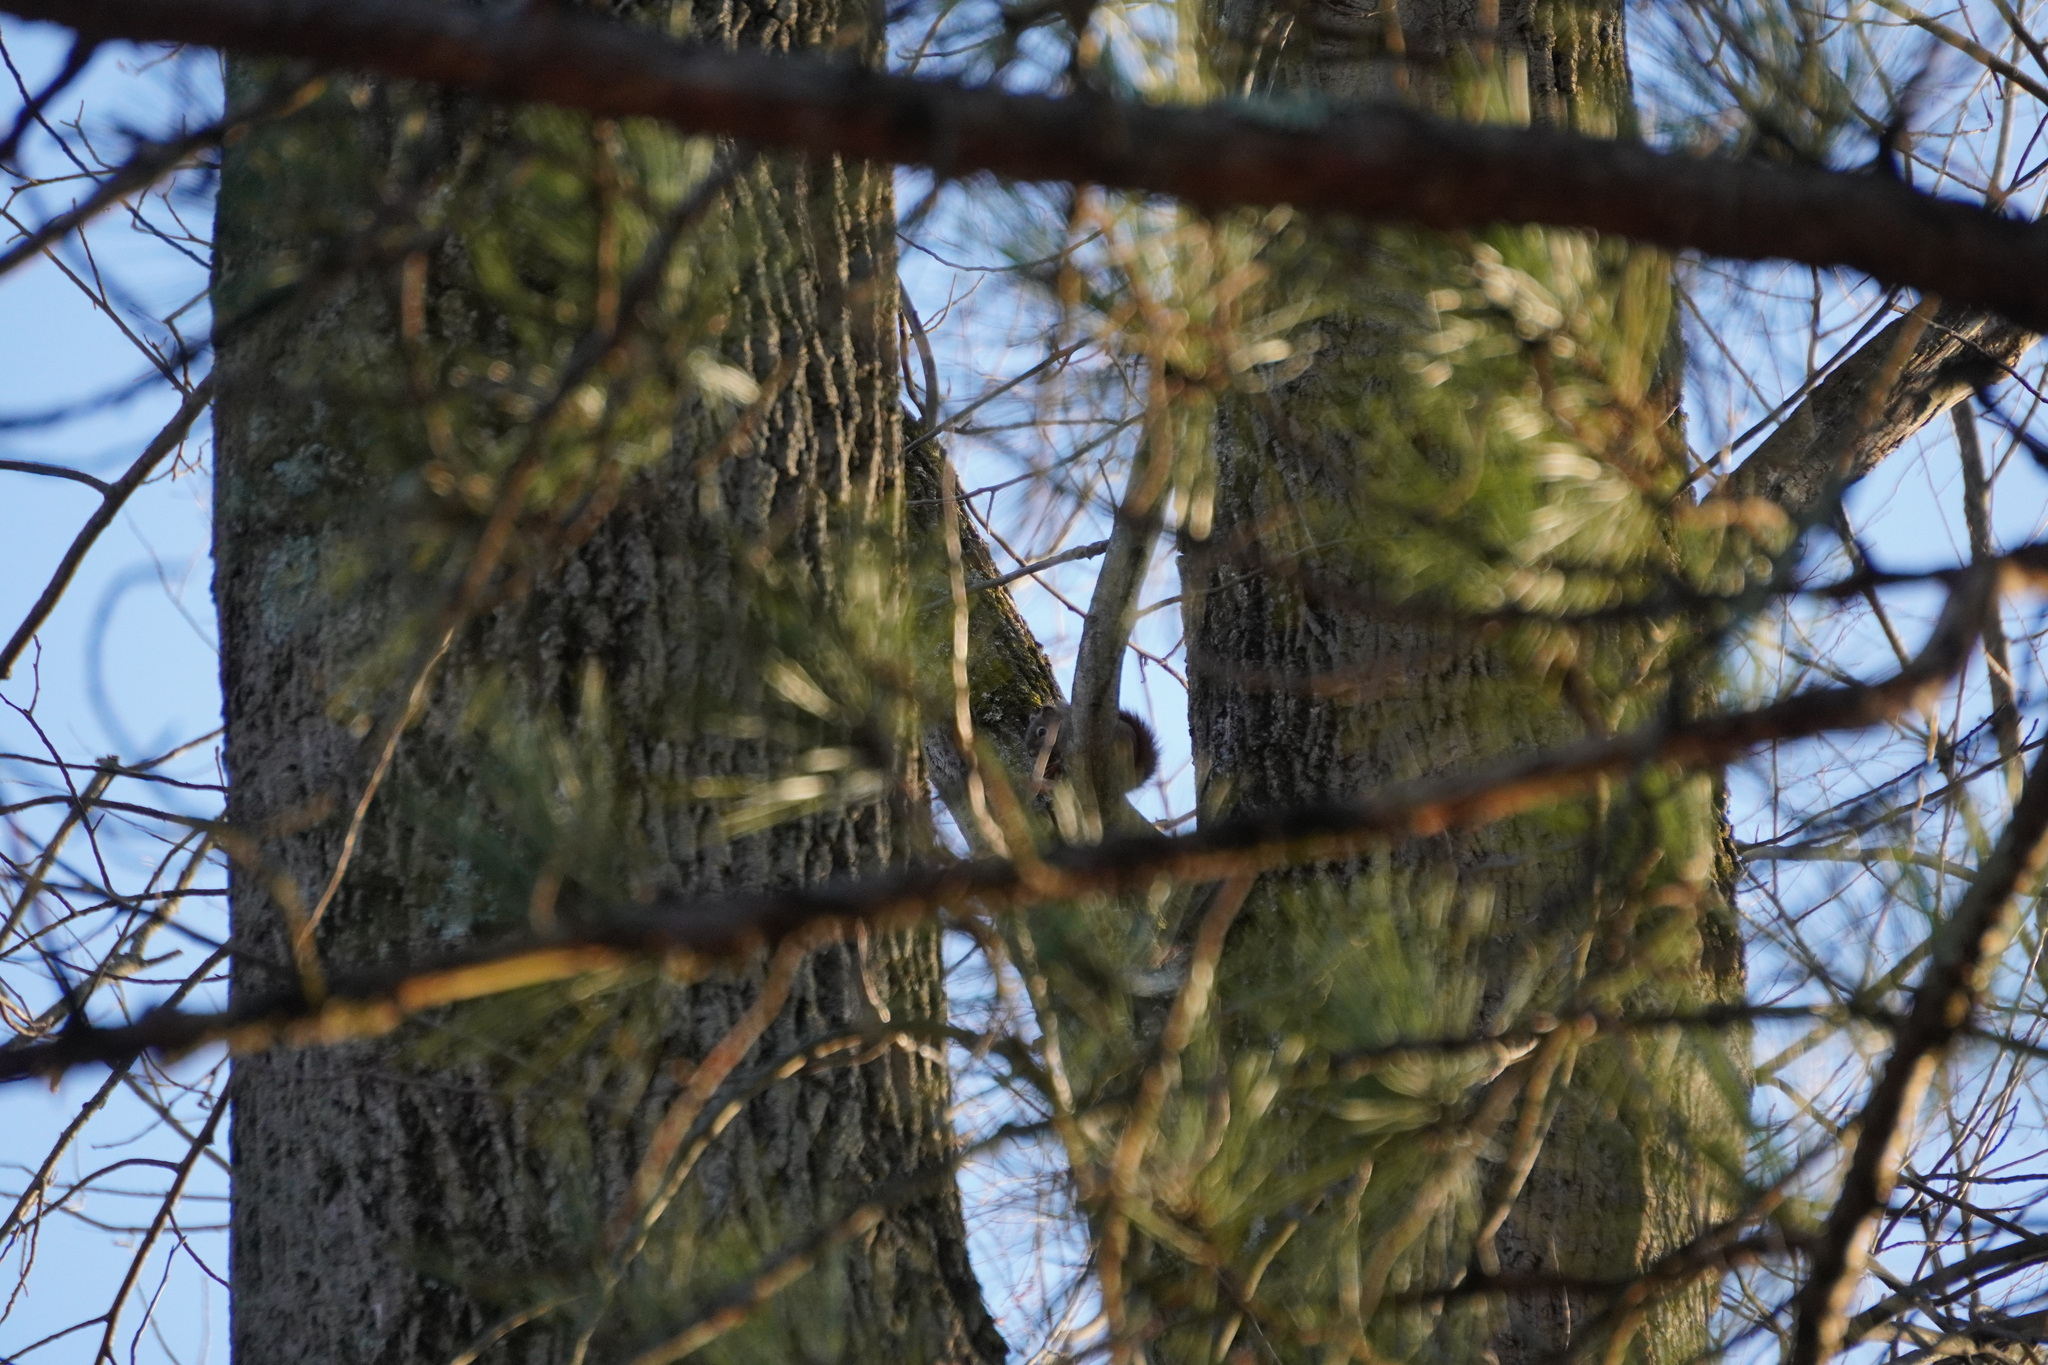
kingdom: Animalia
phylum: Chordata
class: Mammalia
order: Rodentia
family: Sciuridae
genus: Tamiasciurus
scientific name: Tamiasciurus hudsonicus
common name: Red squirrel
